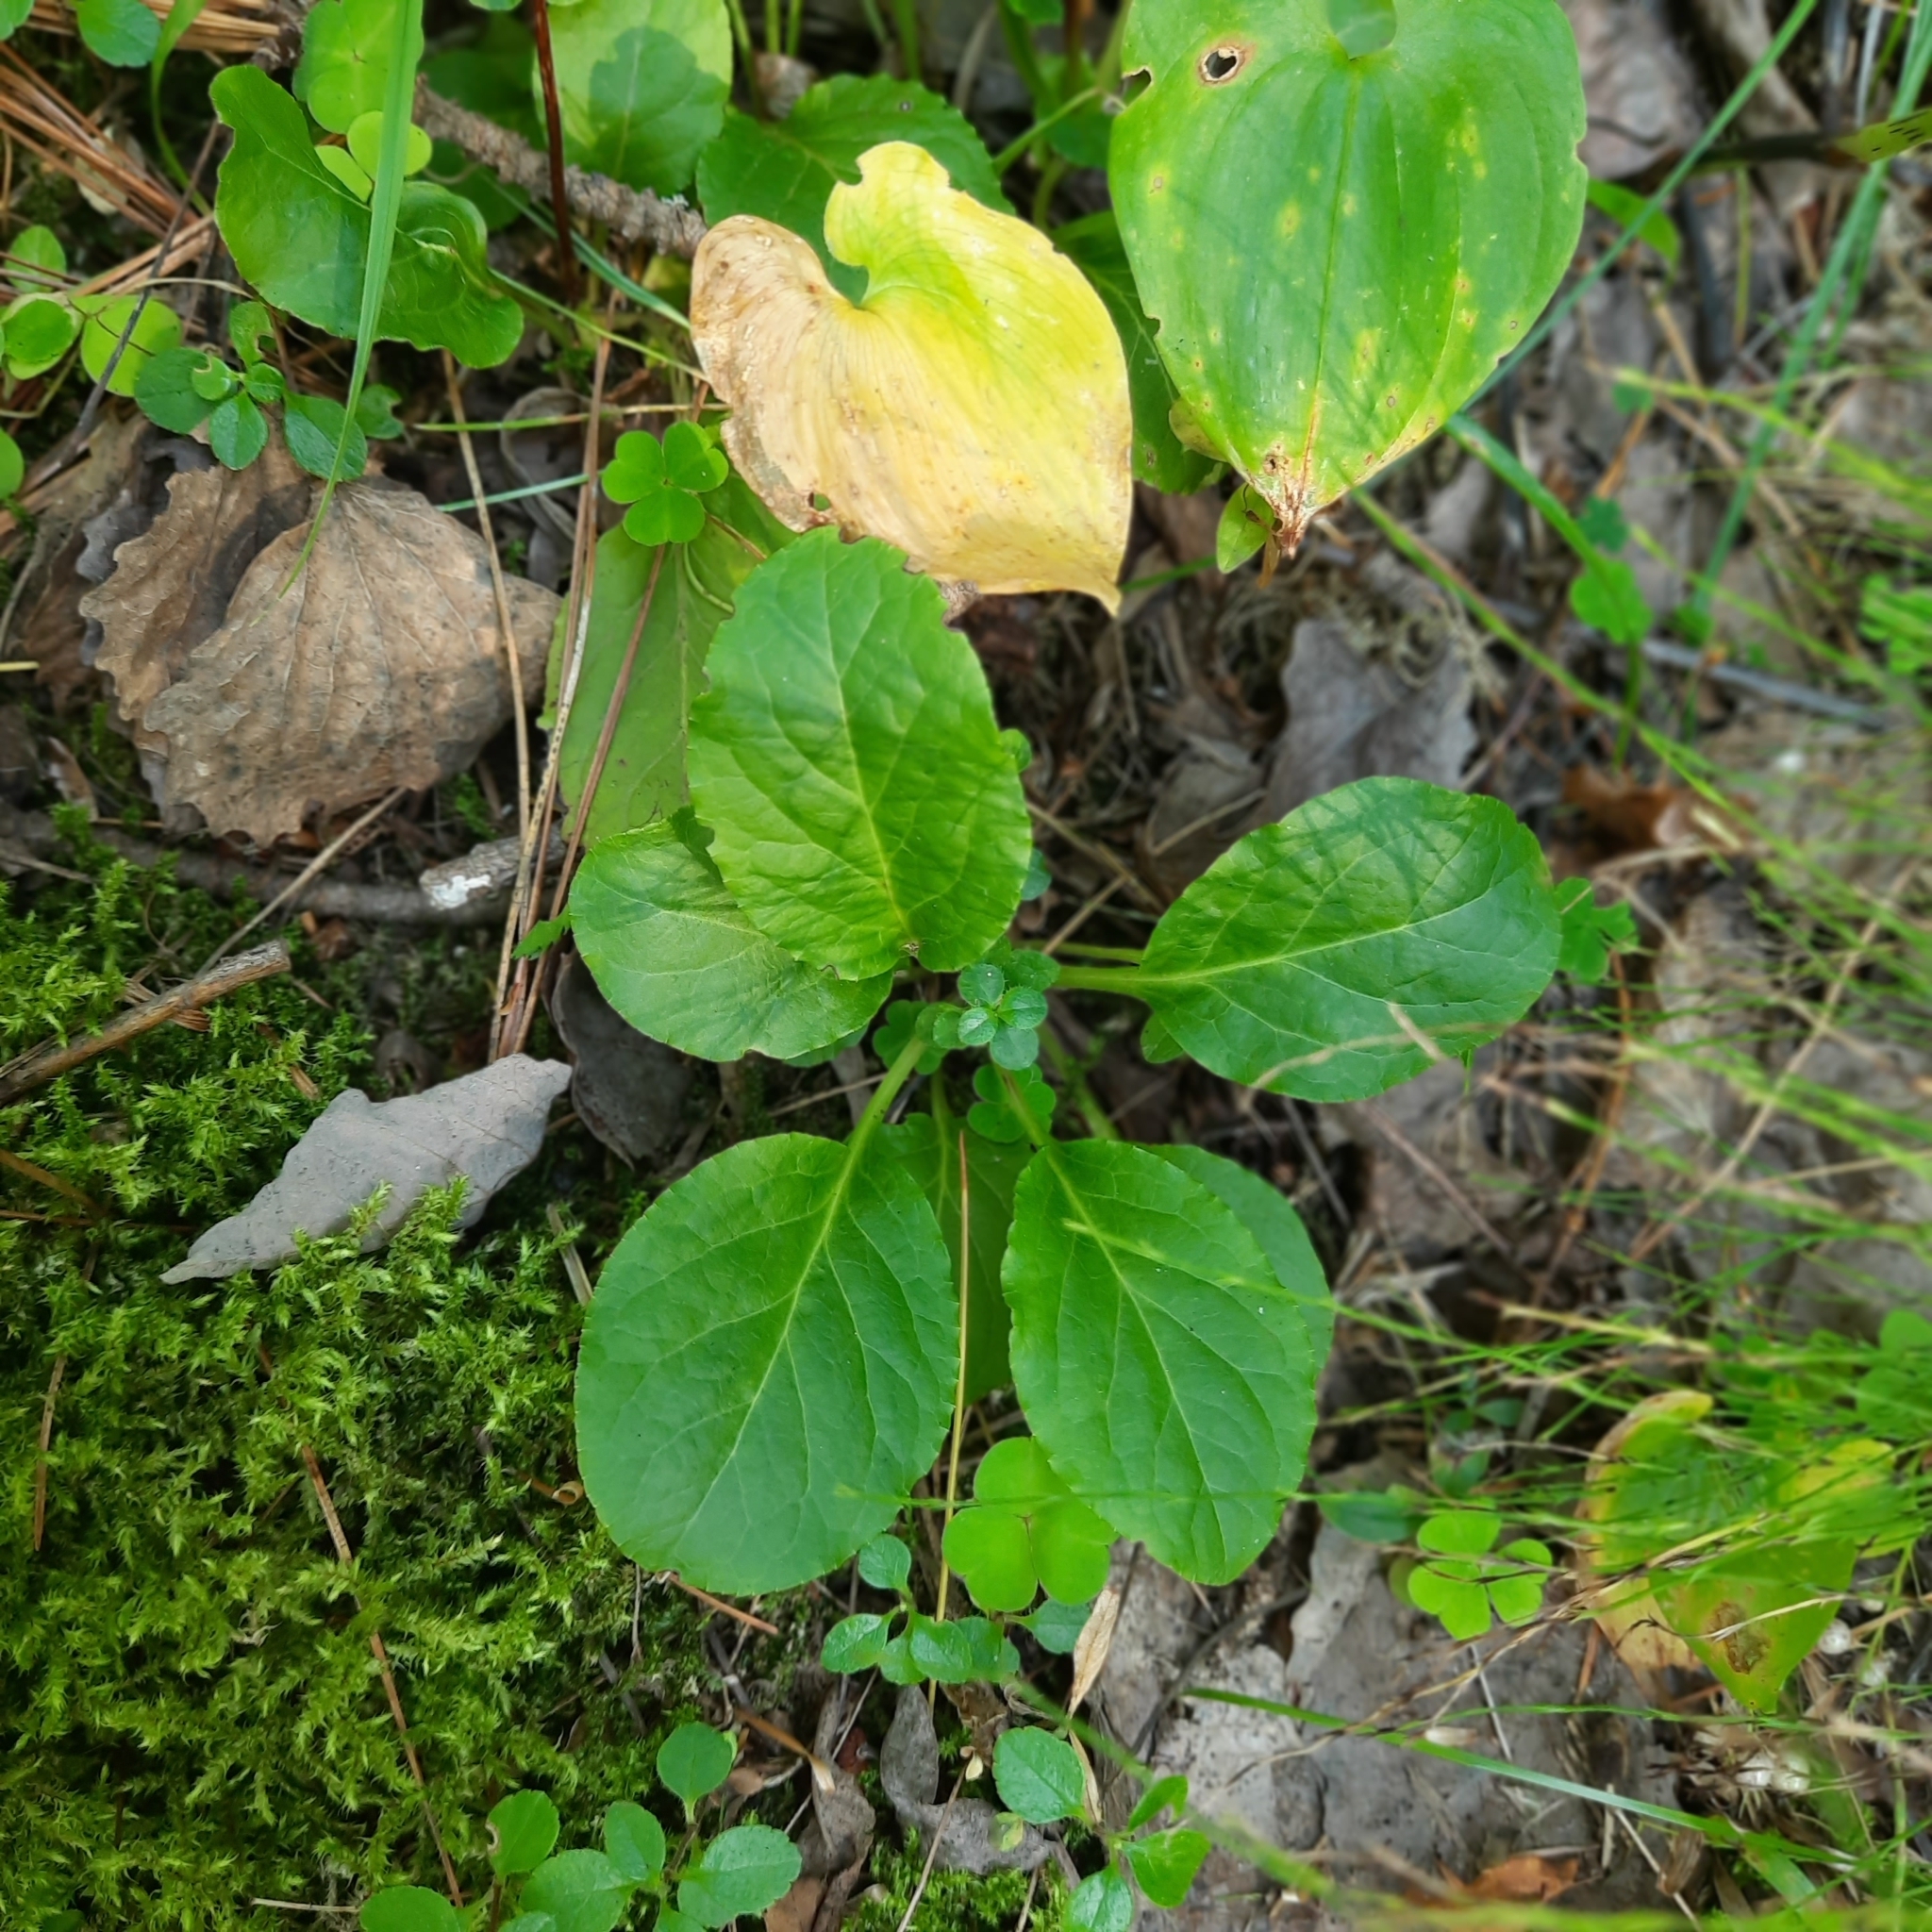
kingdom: Plantae
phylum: Tracheophyta
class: Magnoliopsida
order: Ericales
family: Ericaceae
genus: Pyrola
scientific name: Pyrola minor
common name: Common wintergreen
